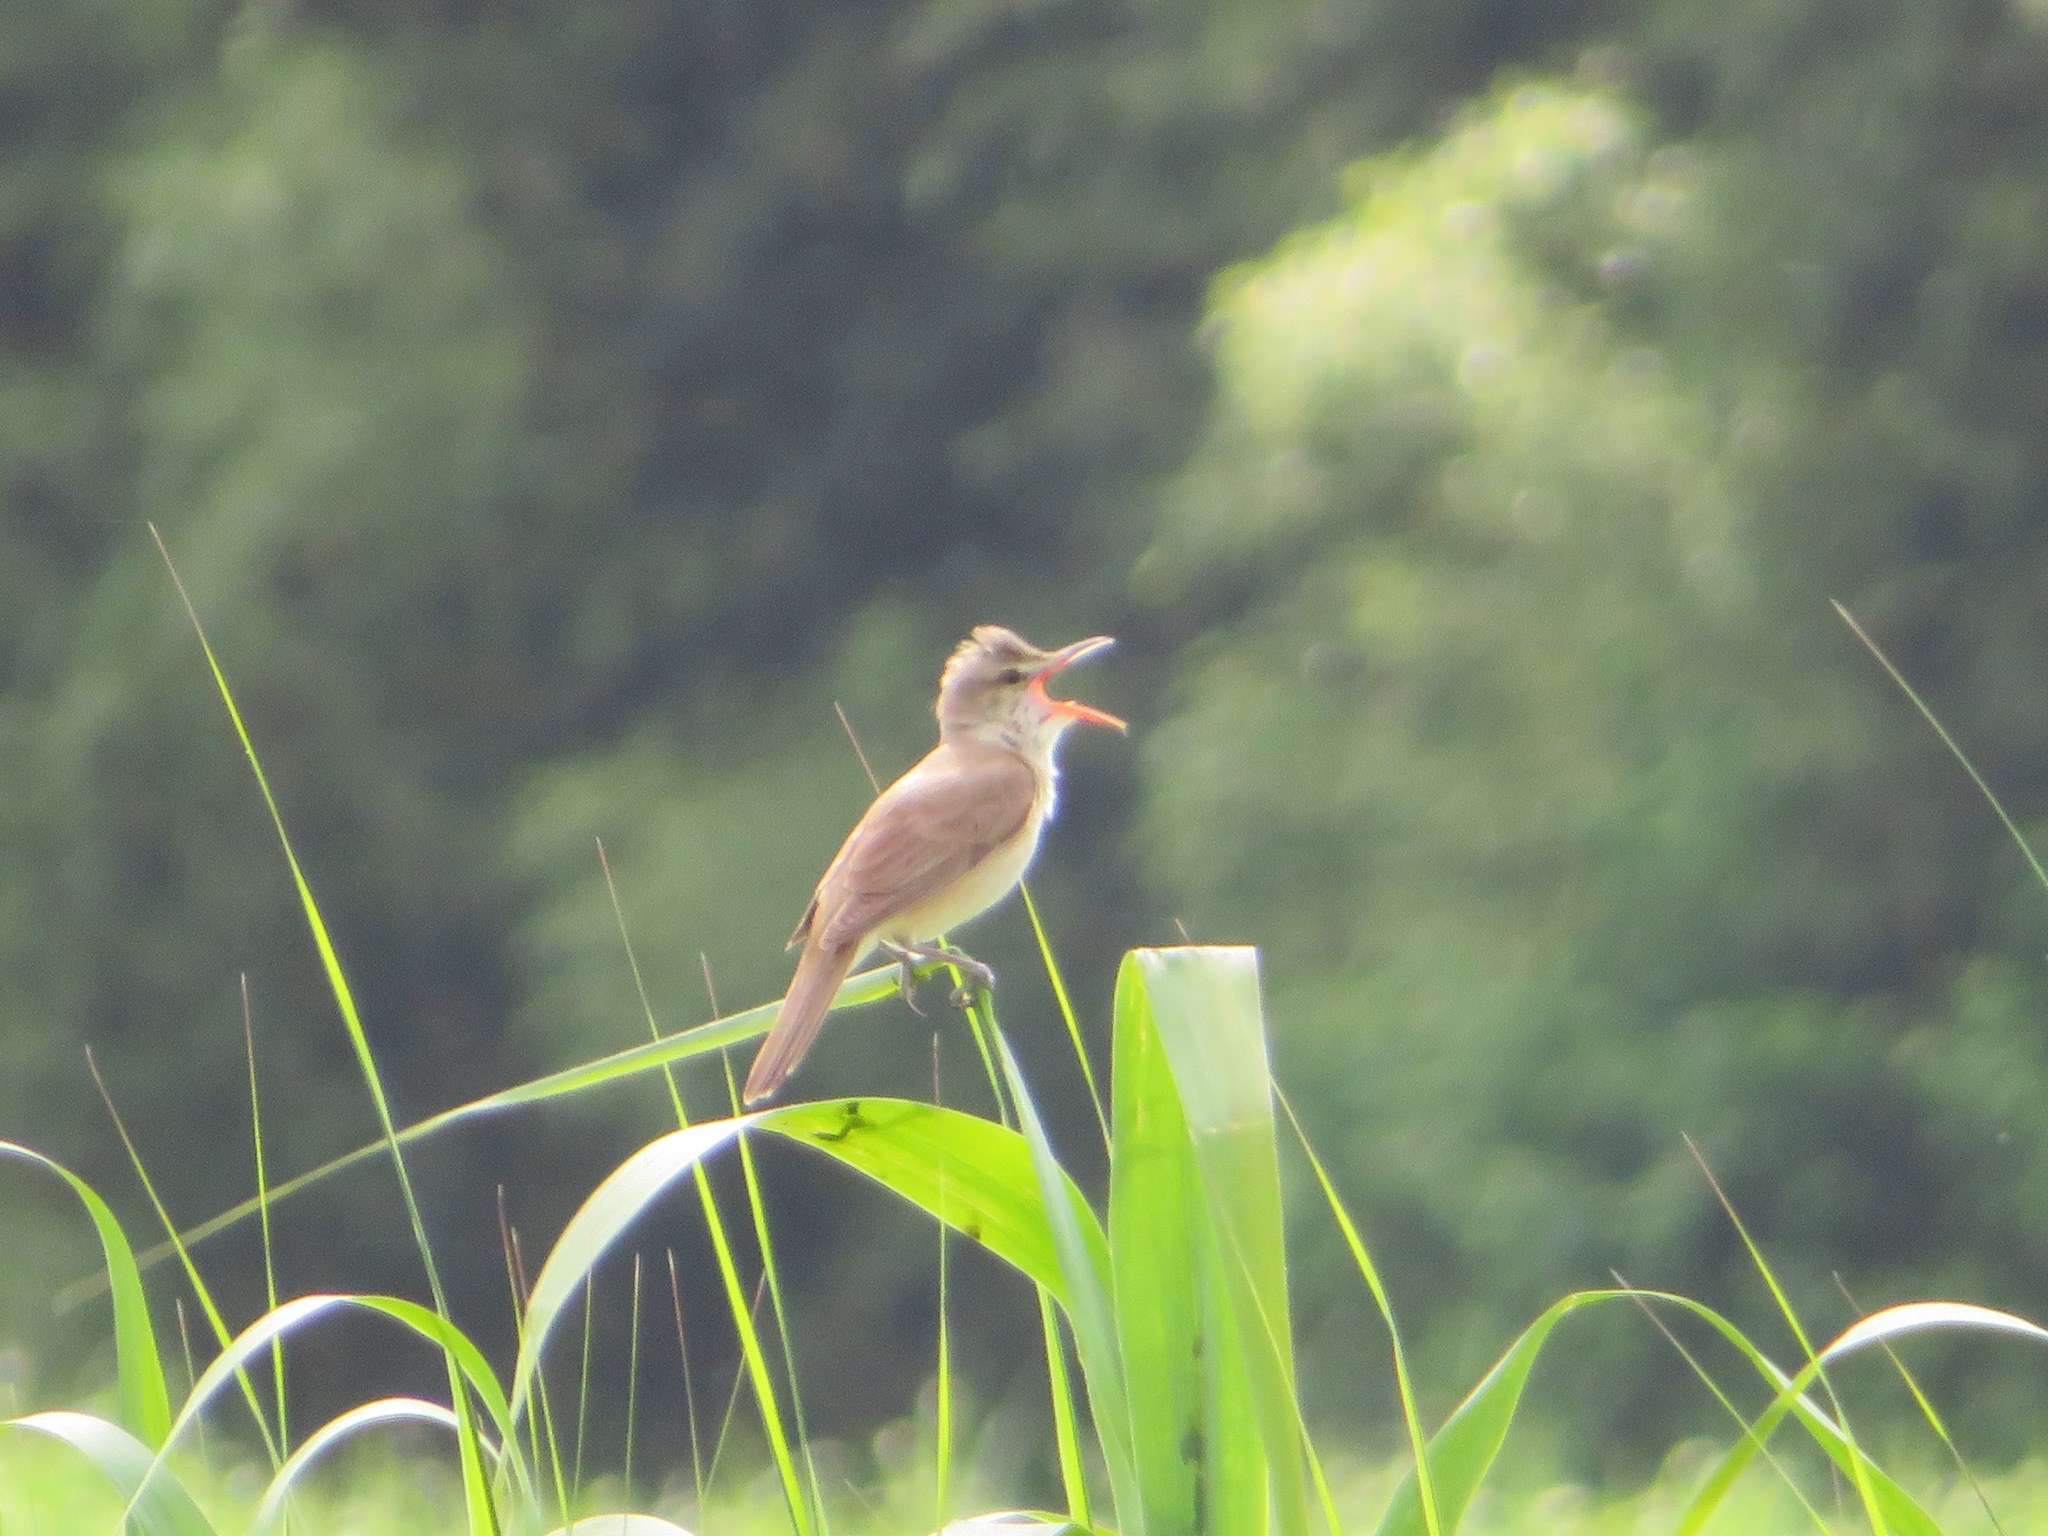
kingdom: Animalia
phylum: Chordata
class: Aves
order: Passeriformes
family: Acrocephalidae
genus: Acrocephalus
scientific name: Acrocephalus orientalis
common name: Oriental reed warbler
